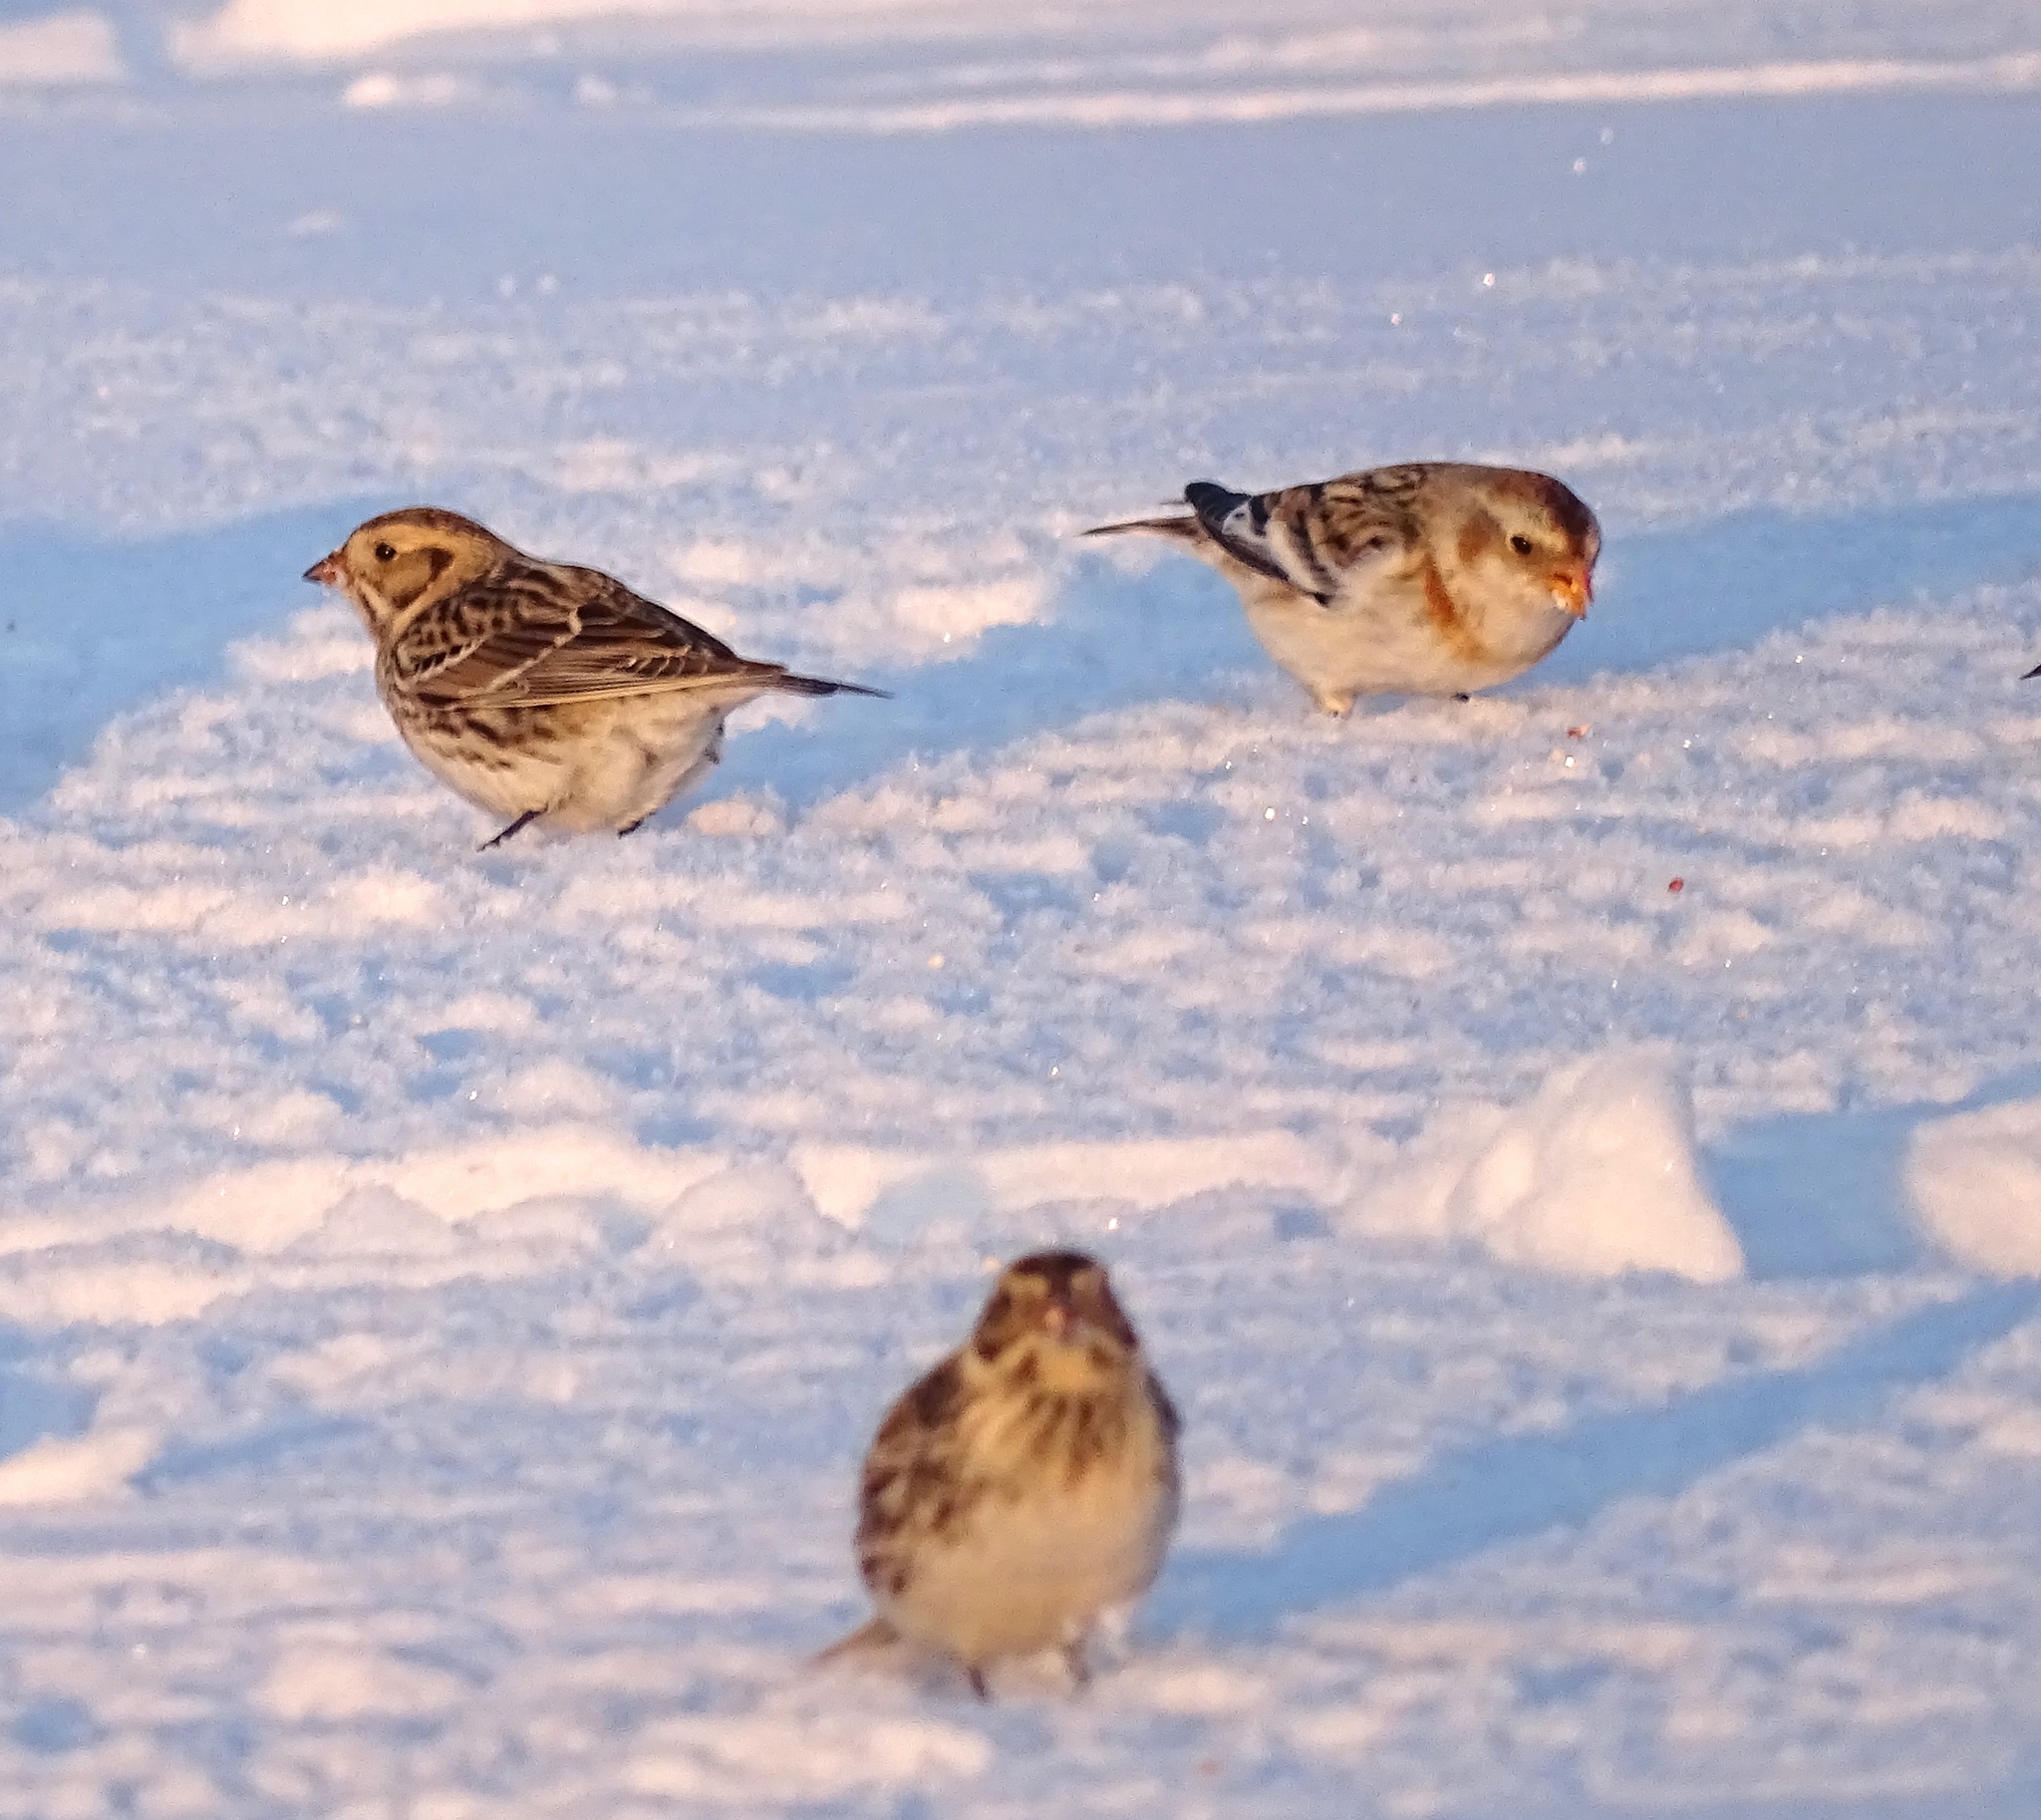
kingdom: Animalia
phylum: Chordata
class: Aves
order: Passeriformes
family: Calcariidae
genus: Calcarius
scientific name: Calcarius lapponicus
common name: Lapland longspur
